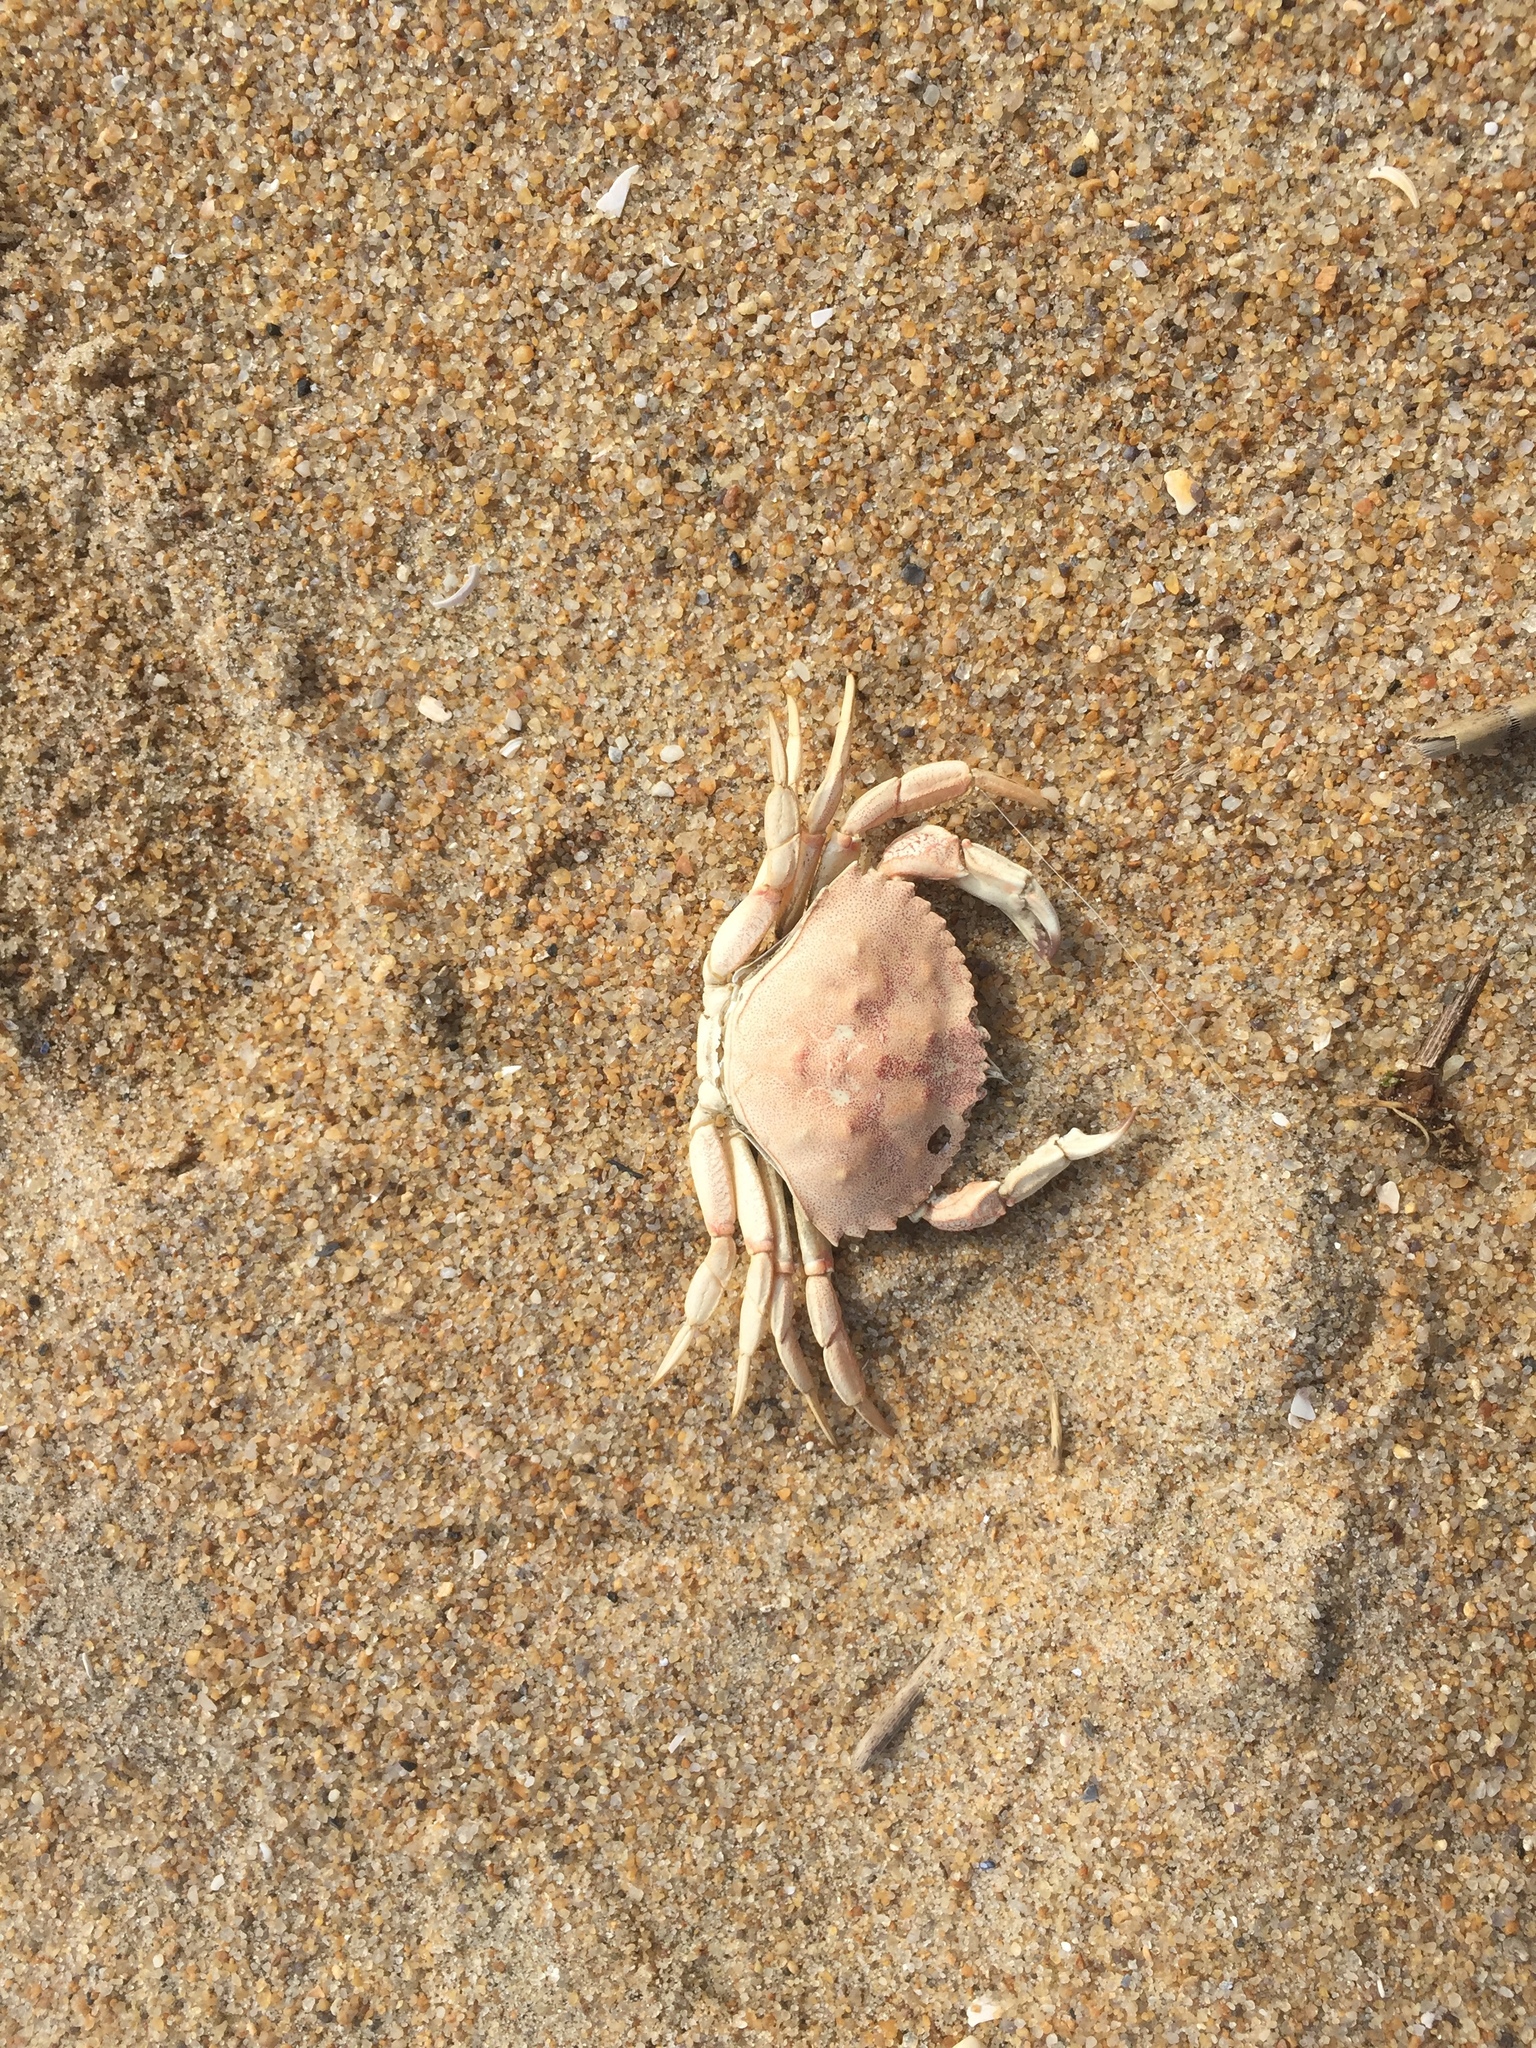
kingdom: Animalia
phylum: Arthropoda
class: Malacostraca
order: Decapoda
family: Cancridae
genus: Cancer
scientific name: Cancer irroratus
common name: Atlantic rock crab
